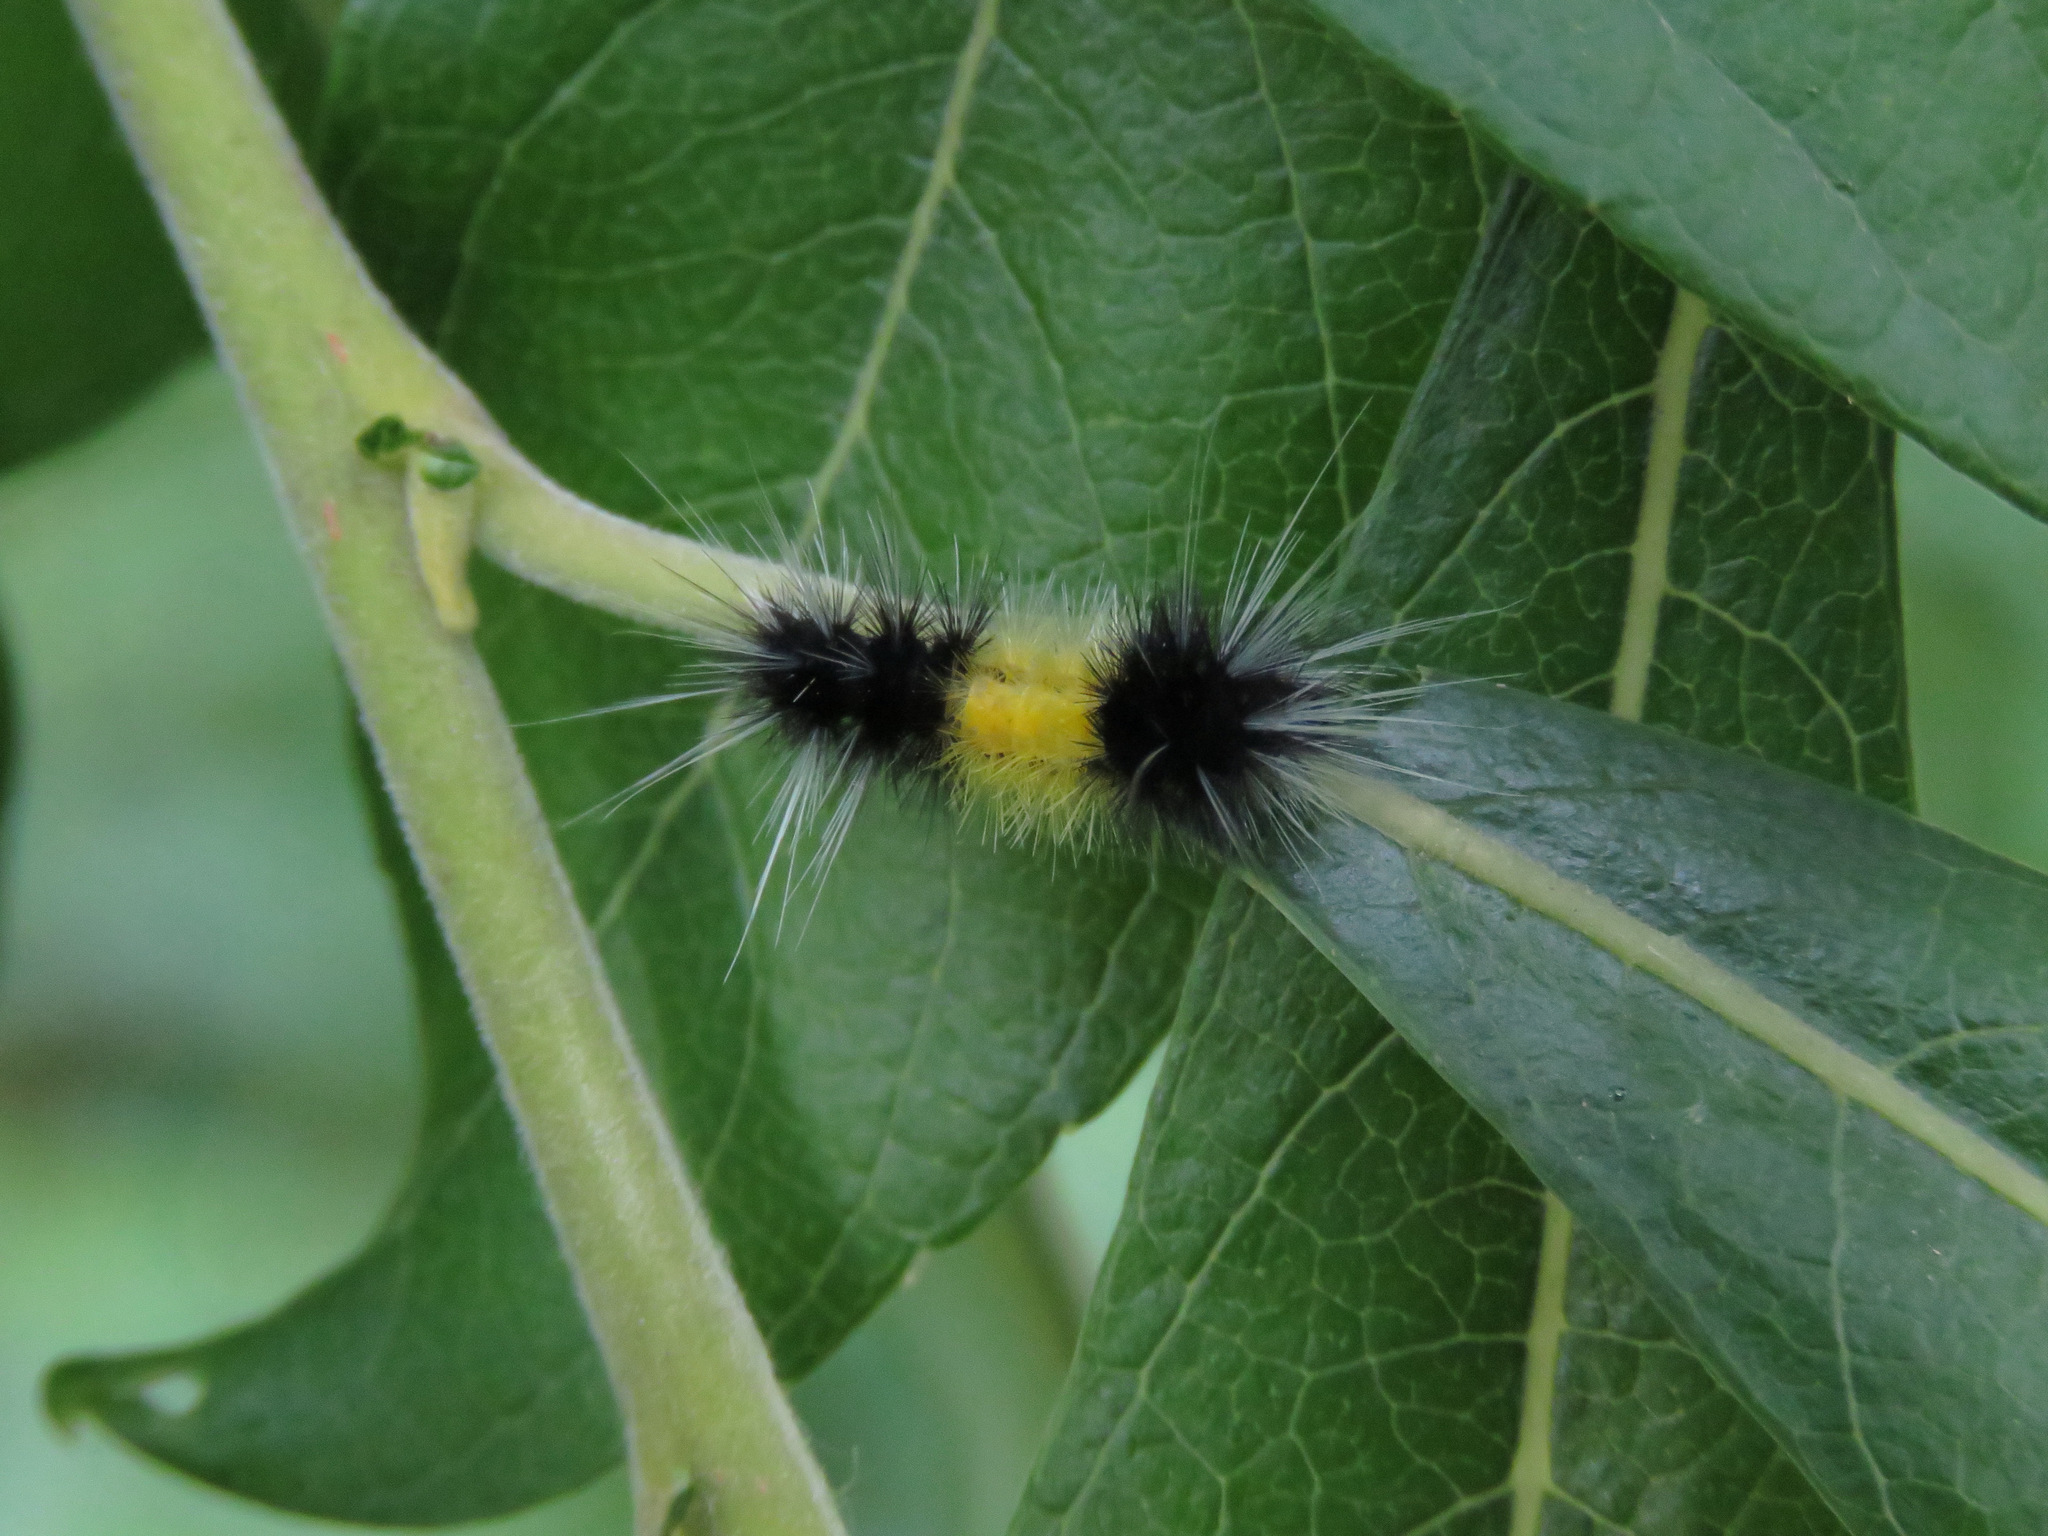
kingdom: Animalia
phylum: Arthropoda
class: Insecta
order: Lepidoptera
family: Erebidae
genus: Lophocampa
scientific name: Lophocampa maculata
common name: Spotted tussock moth
